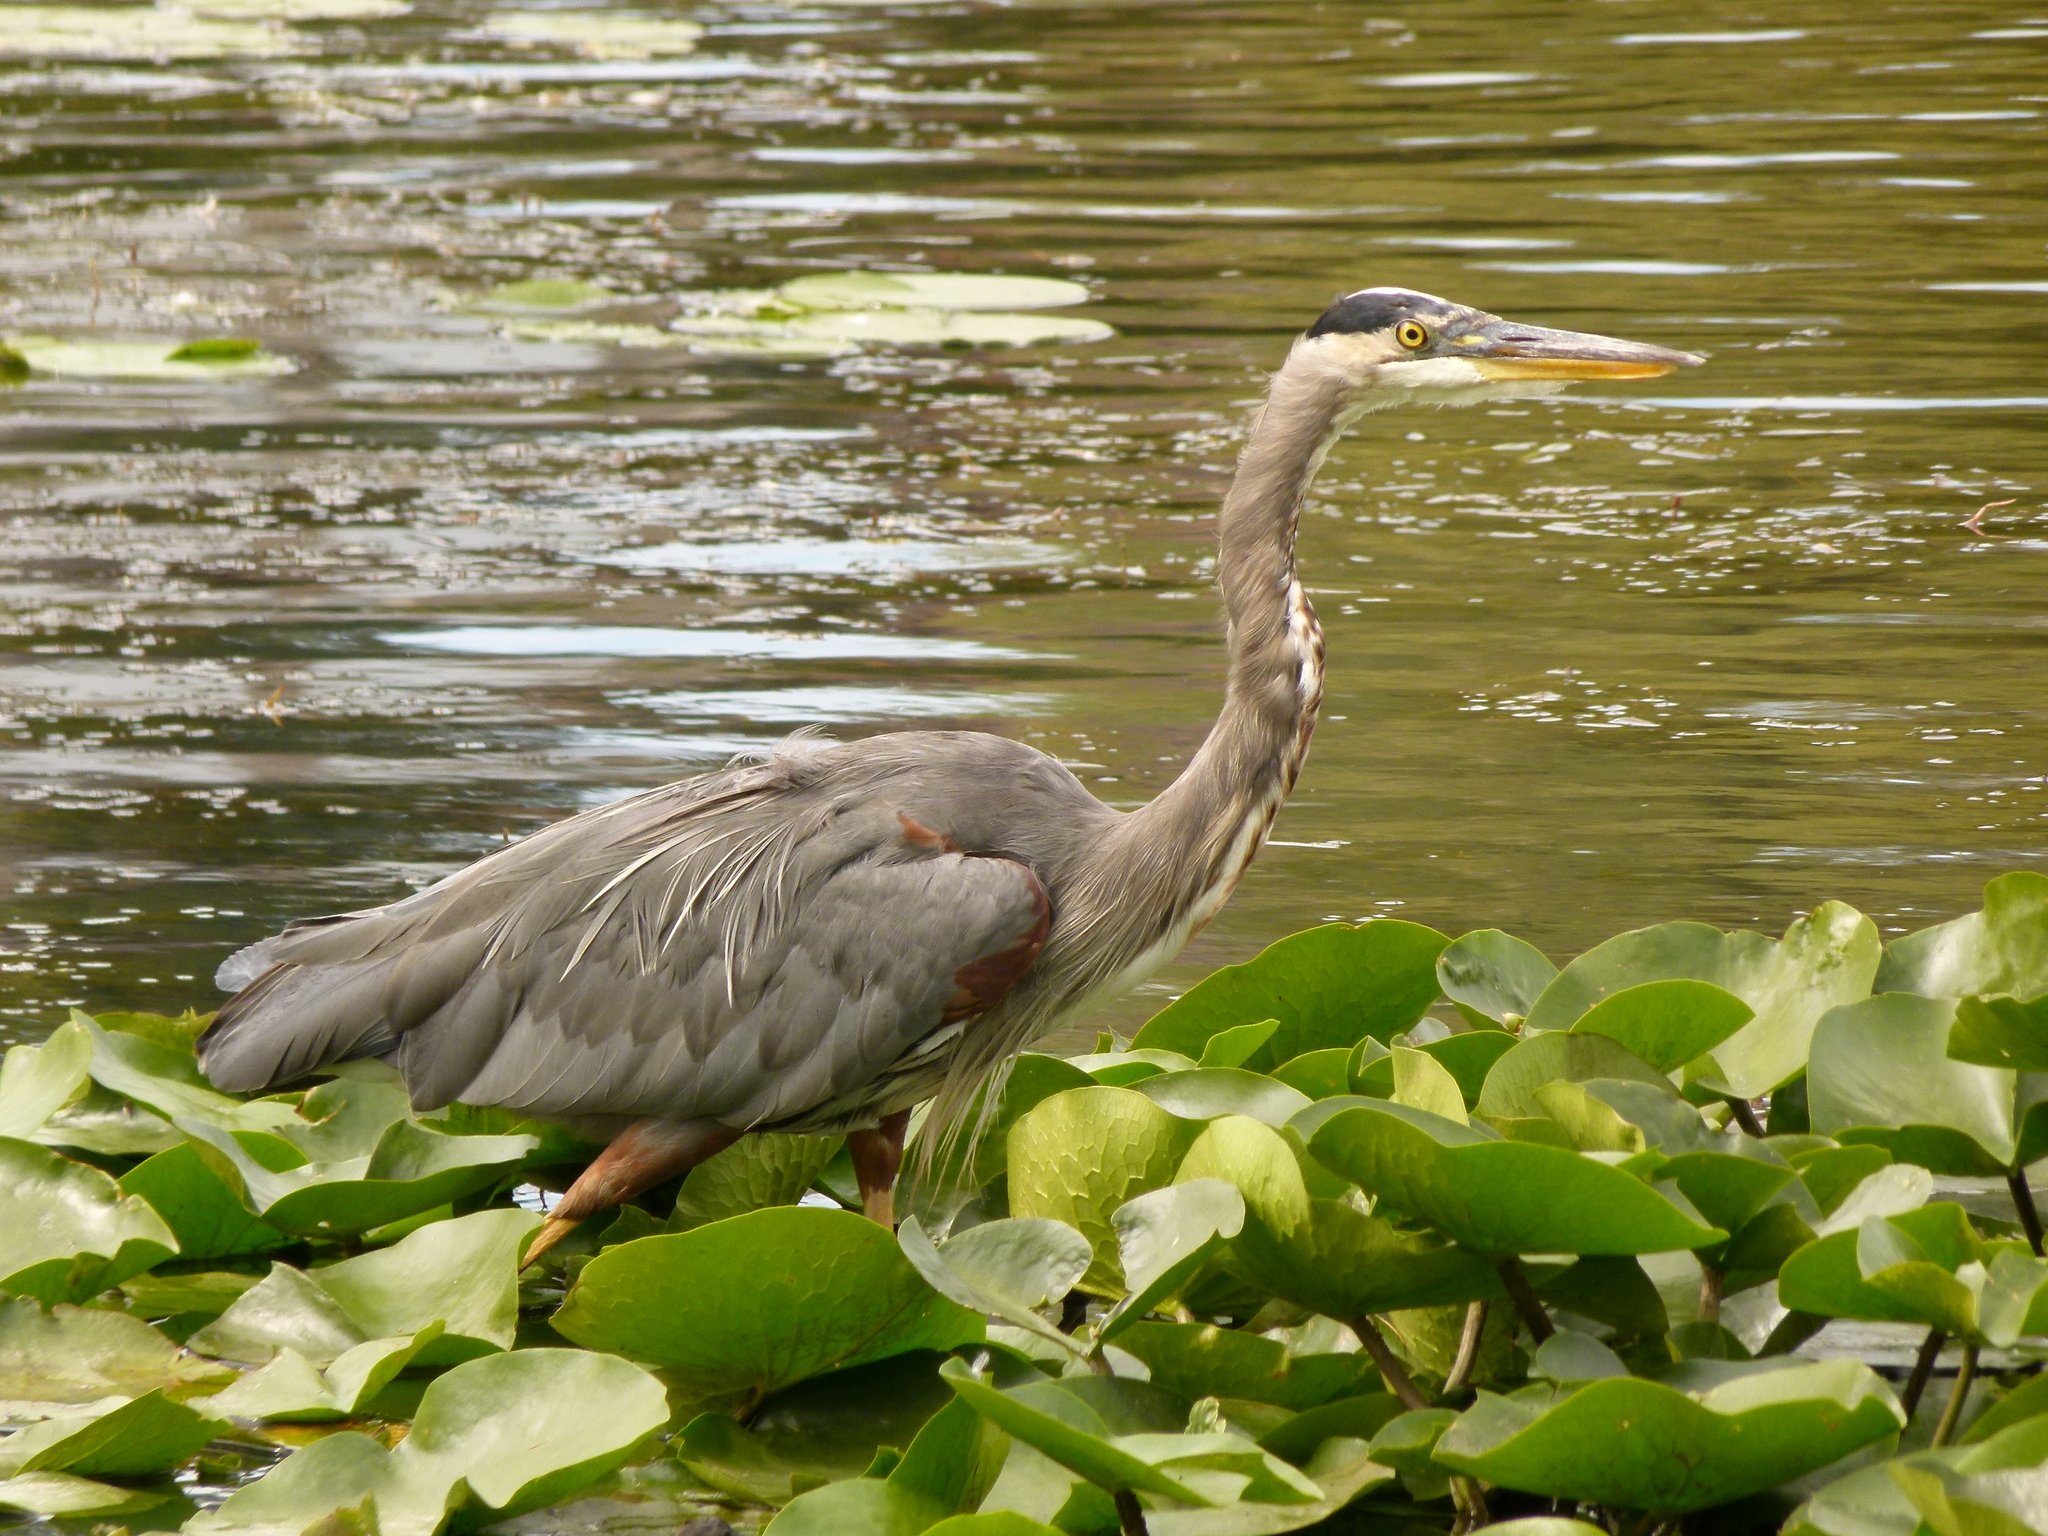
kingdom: Animalia
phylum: Chordata
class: Aves
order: Pelecaniformes
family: Ardeidae
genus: Ardea
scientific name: Ardea herodias
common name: Great blue heron
